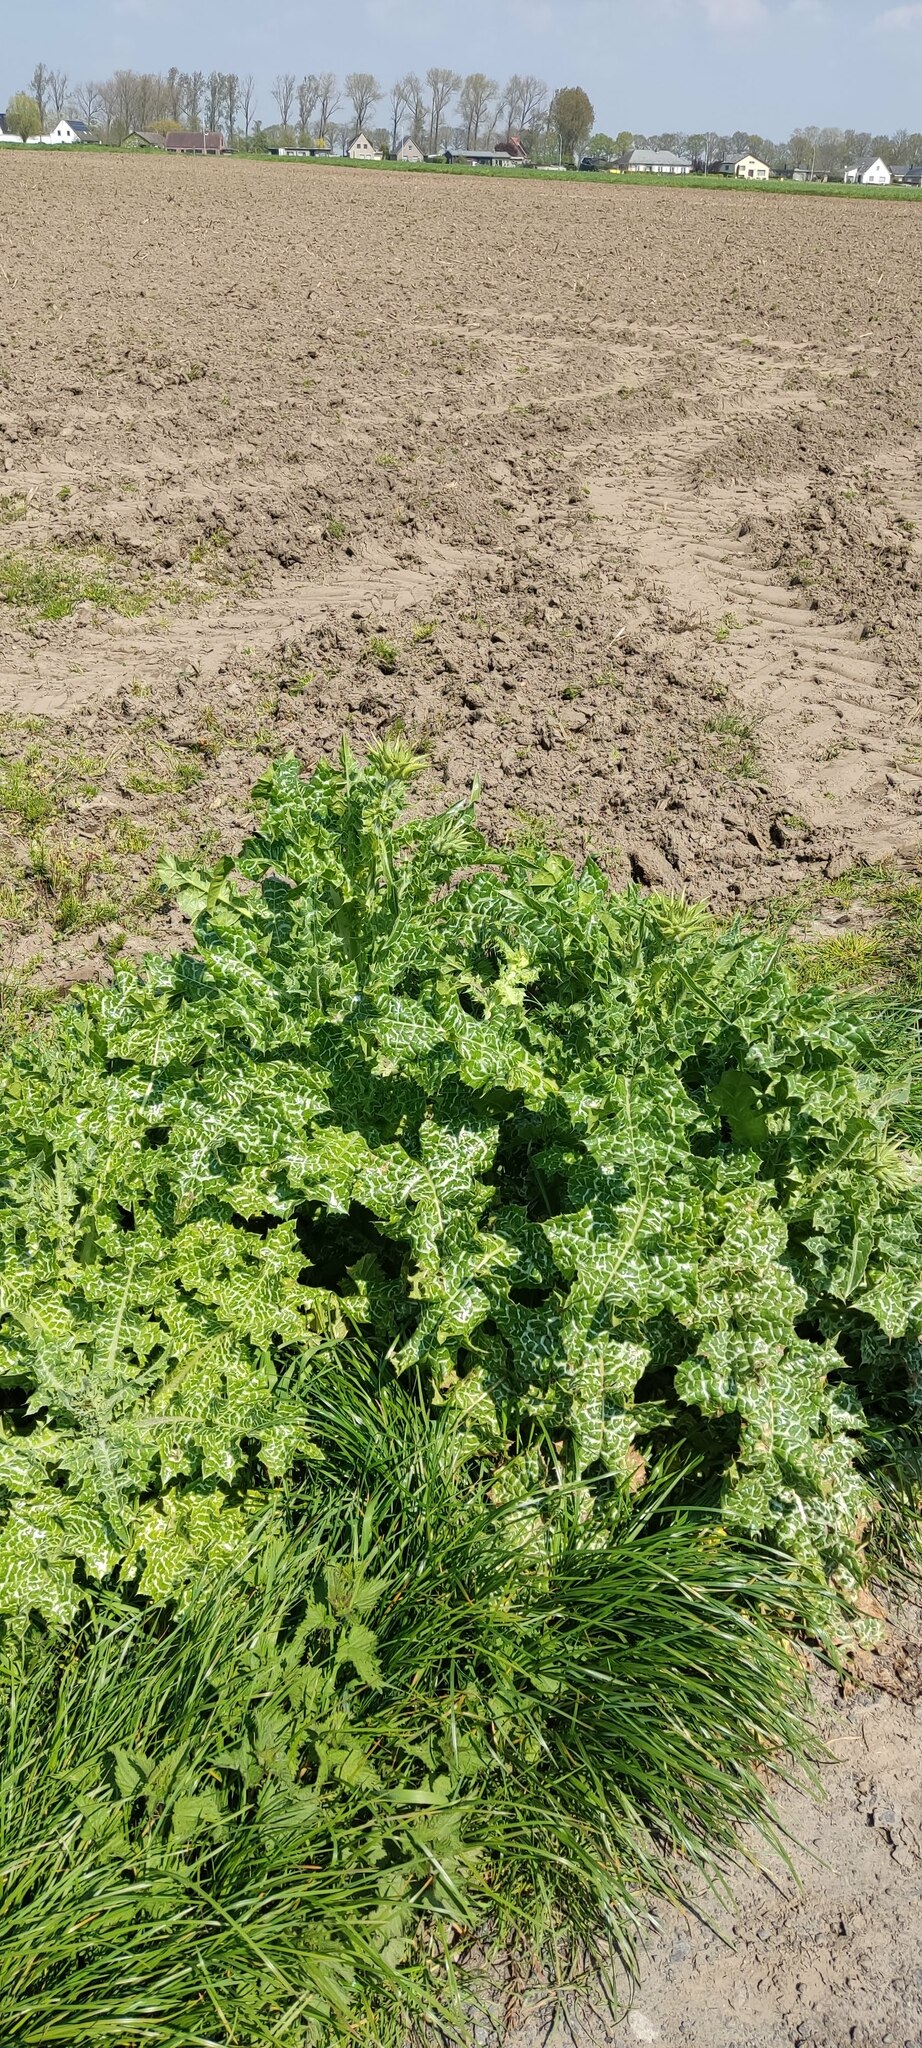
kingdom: Plantae
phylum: Tracheophyta
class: Magnoliopsida
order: Asterales
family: Asteraceae
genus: Silybum
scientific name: Silybum marianum
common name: Milk thistle
